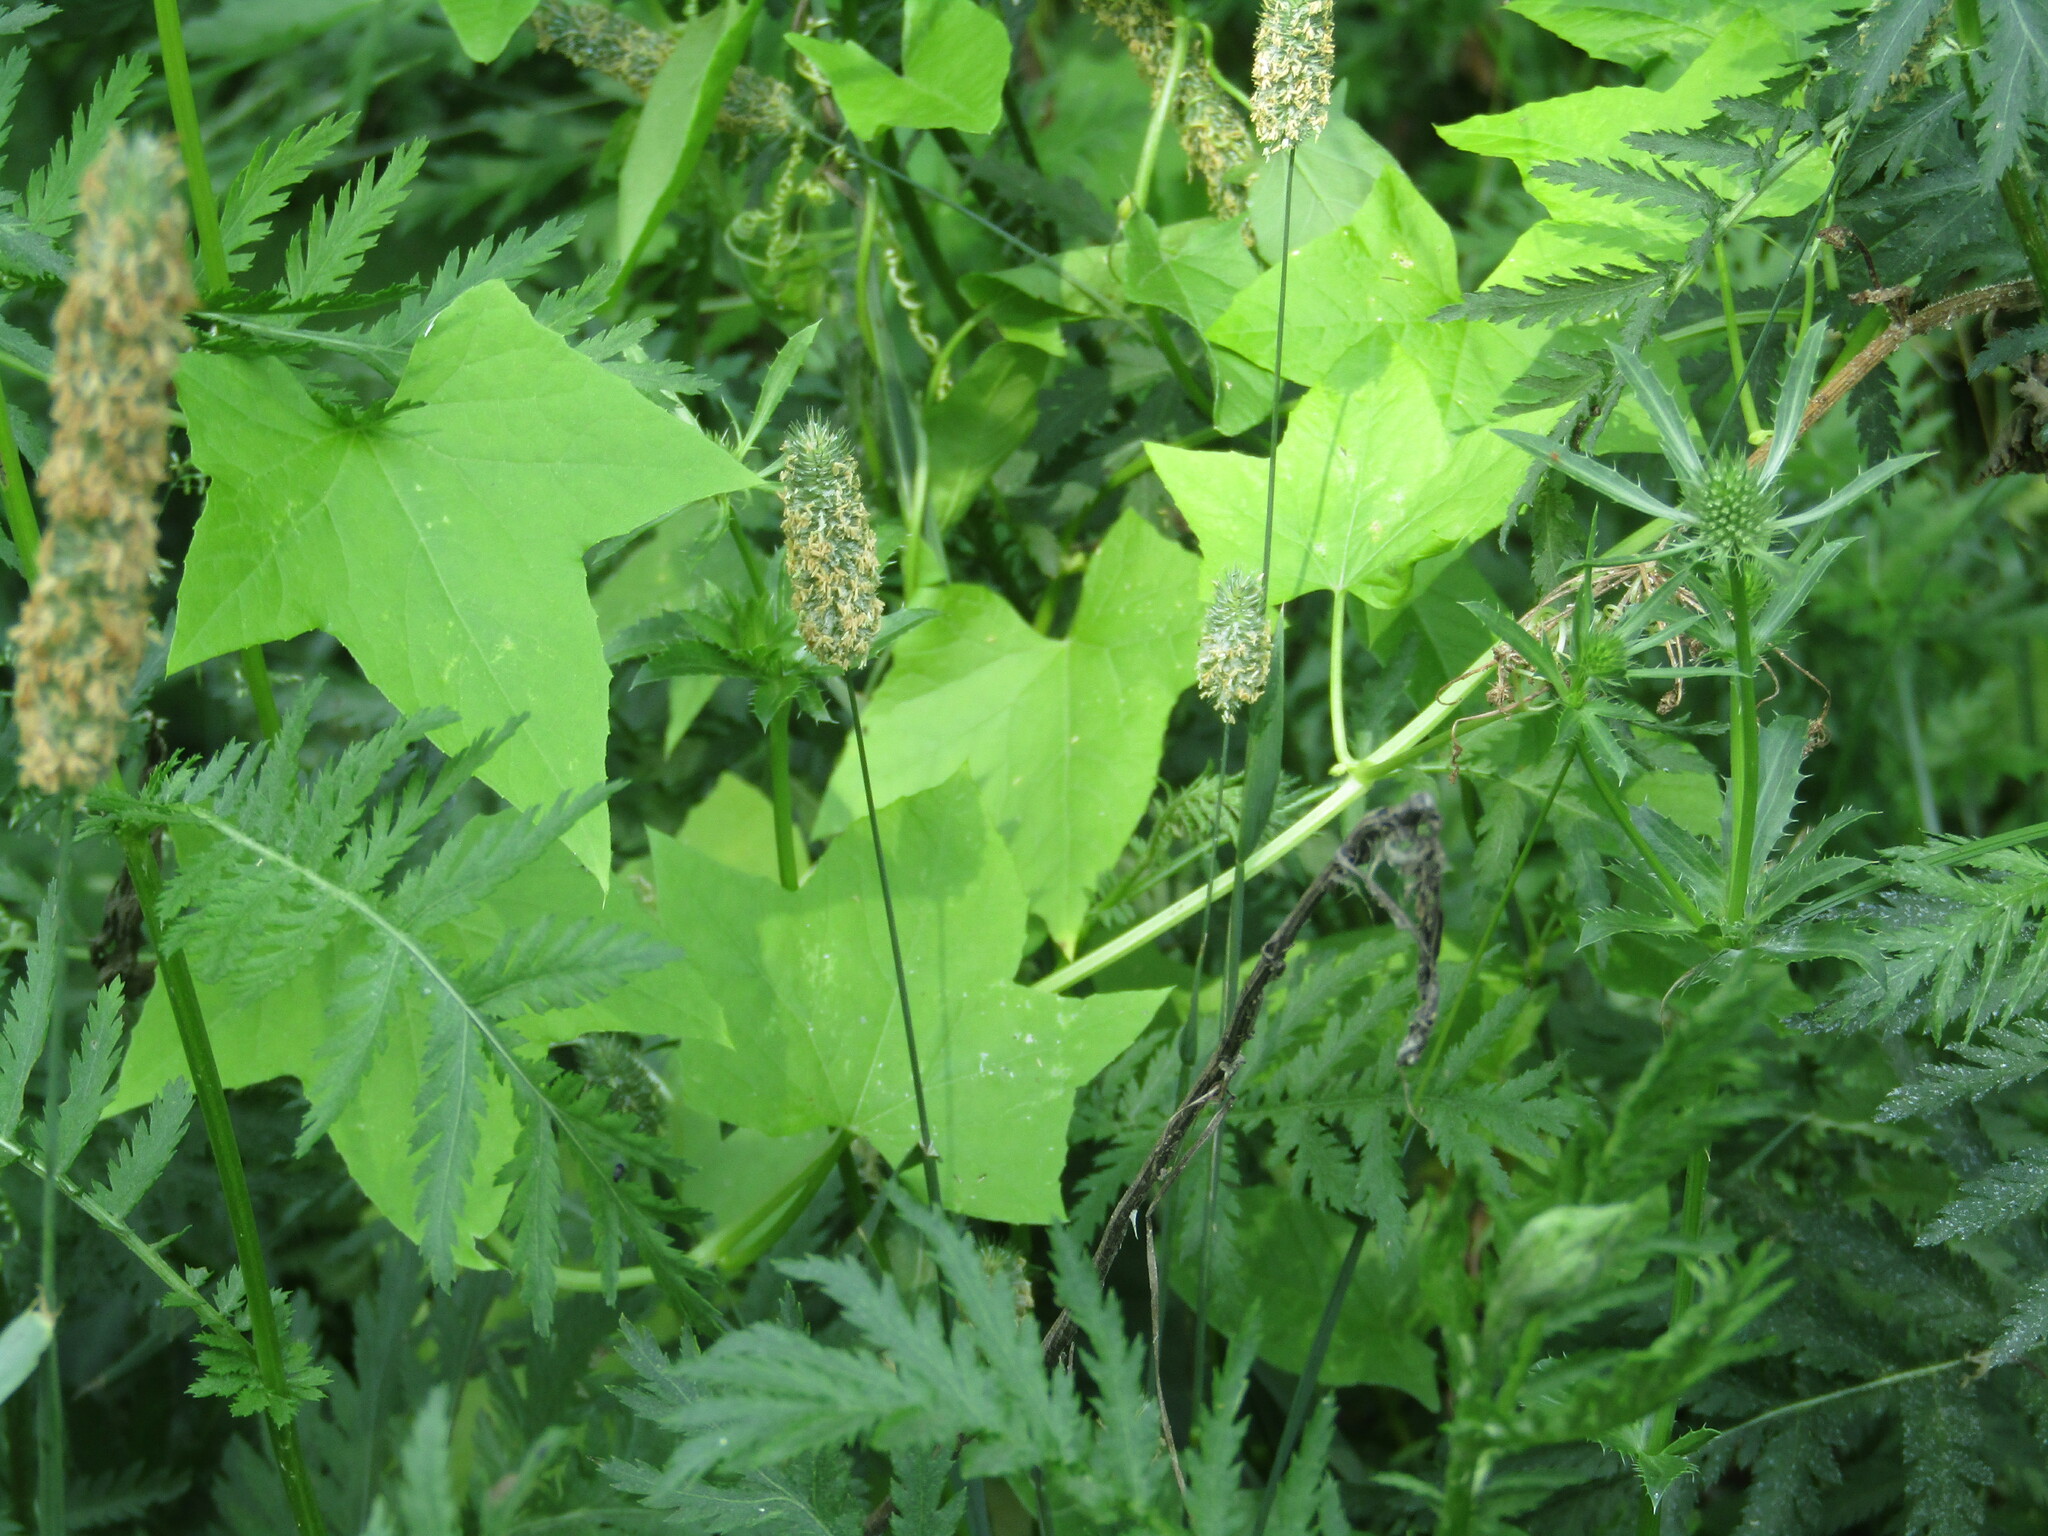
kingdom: Plantae
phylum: Tracheophyta
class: Magnoliopsida
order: Cucurbitales
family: Cucurbitaceae
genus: Echinocystis
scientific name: Echinocystis lobata
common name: Wild cucumber
